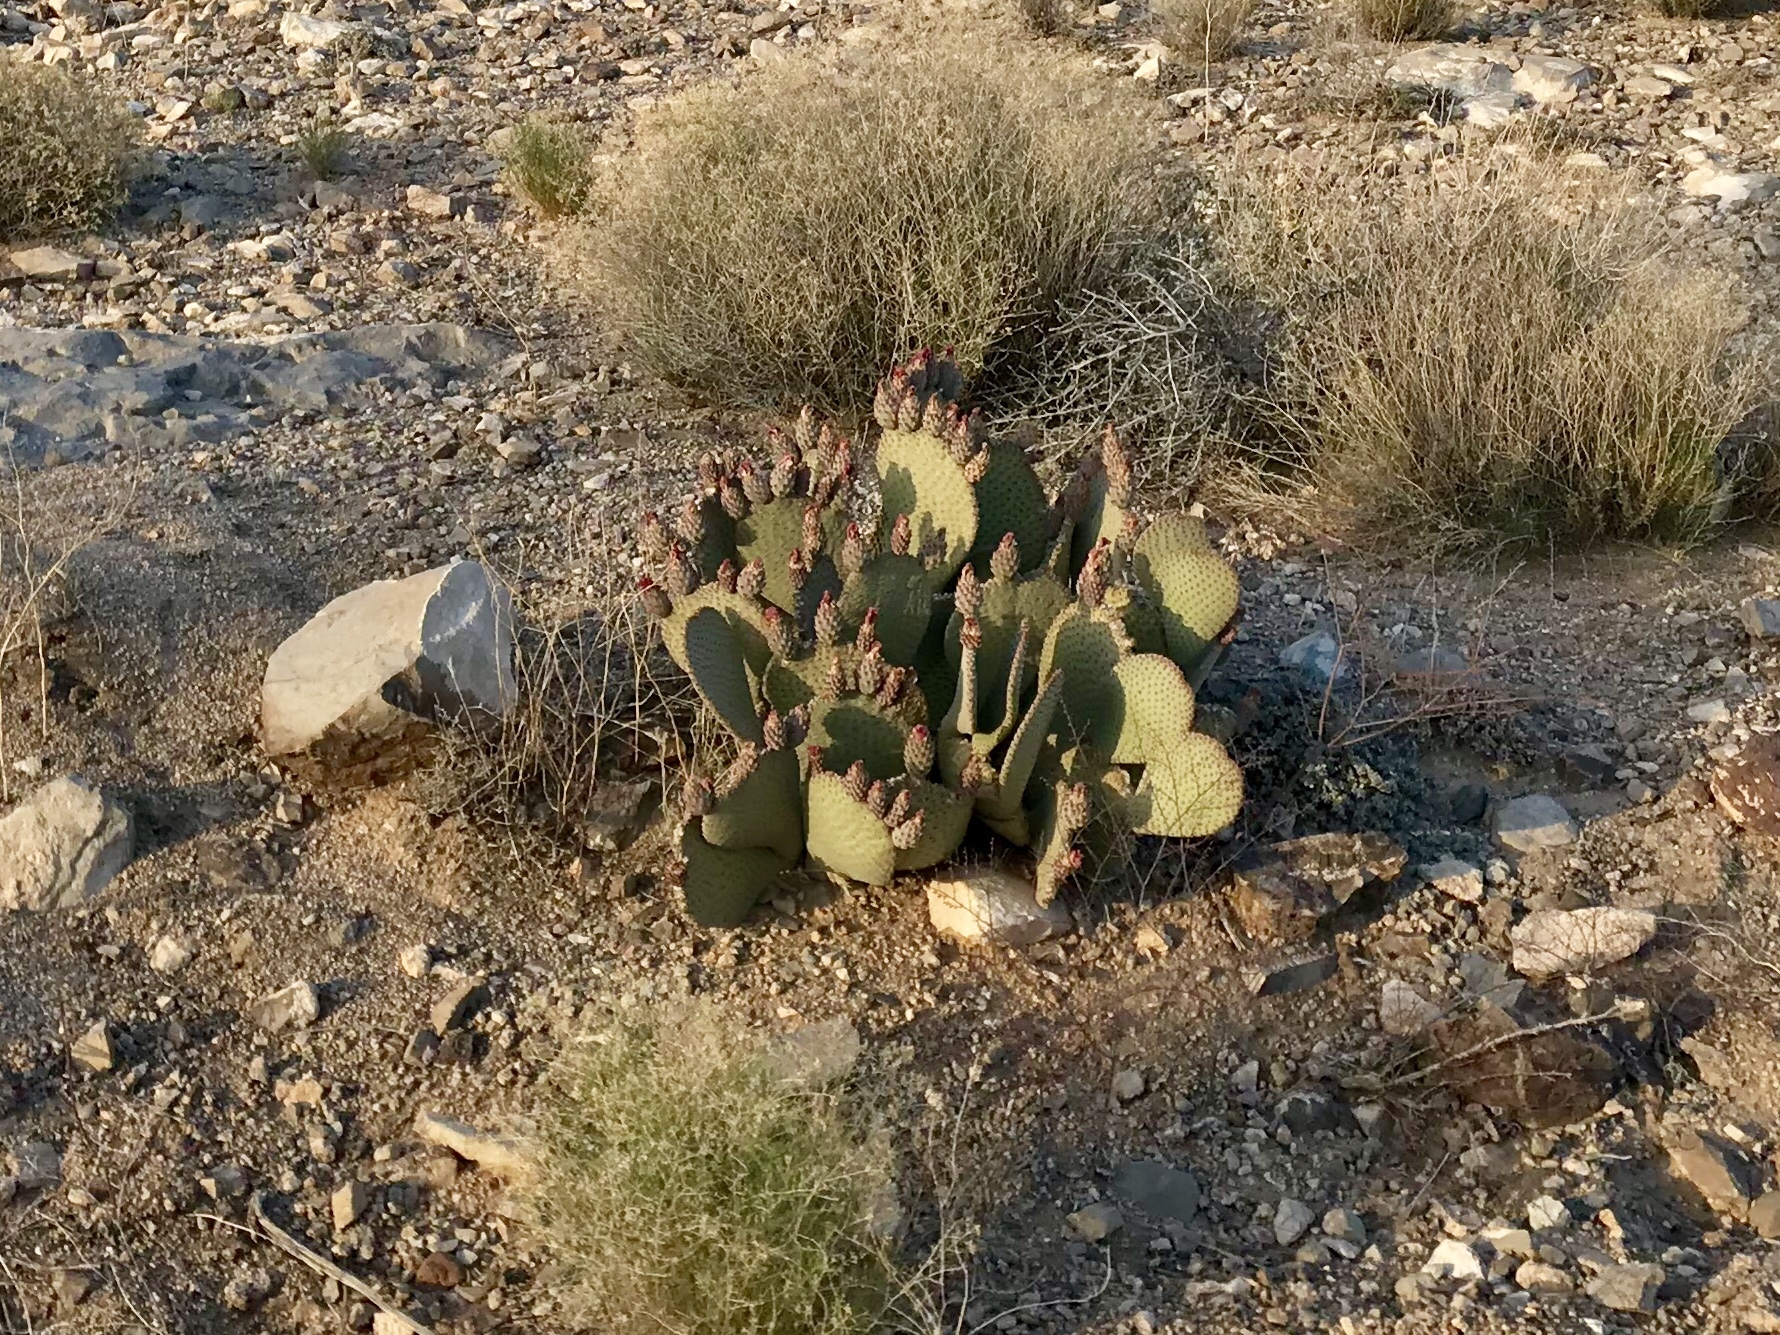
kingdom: Plantae
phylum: Tracheophyta
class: Magnoliopsida
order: Caryophyllales
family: Cactaceae
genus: Opuntia
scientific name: Opuntia basilaris
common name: Beavertail prickly-pear
